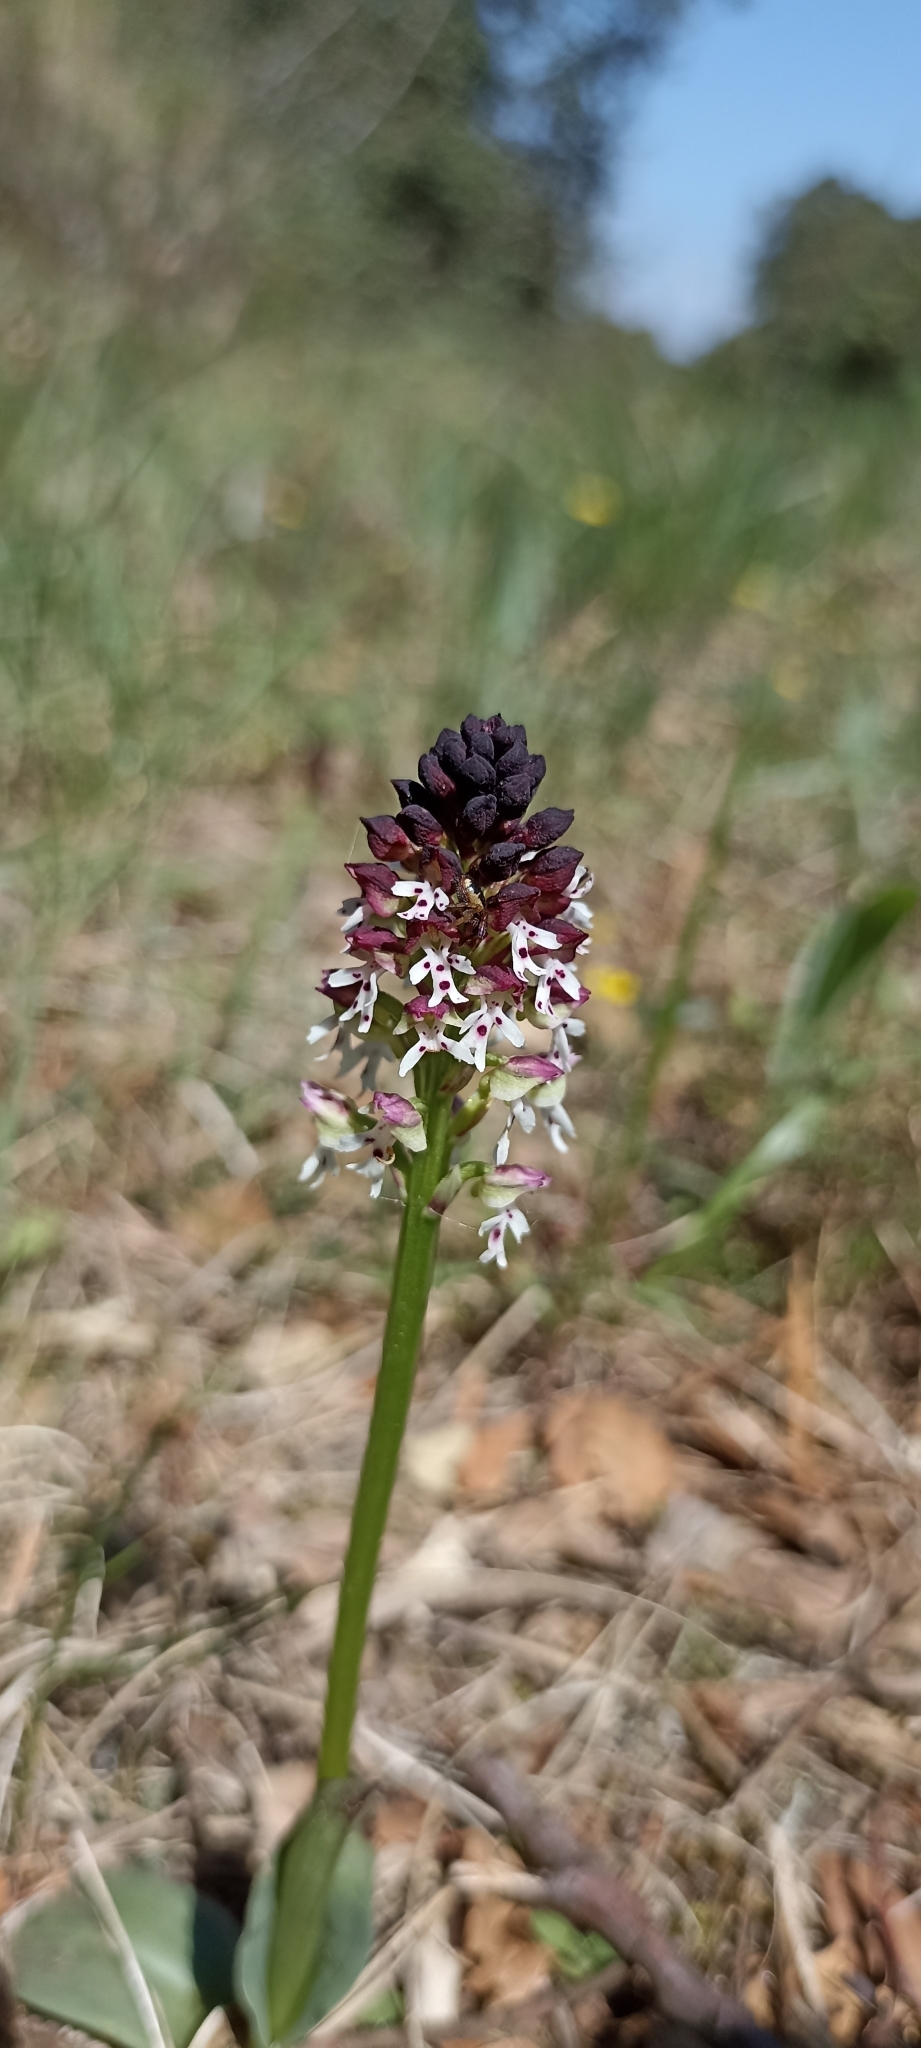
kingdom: Plantae
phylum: Tracheophyta
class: Liliopsida
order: Asparagales
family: Orchidaceae
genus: Neotinea
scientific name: Neotinea ustulata
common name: Burnt orchid
